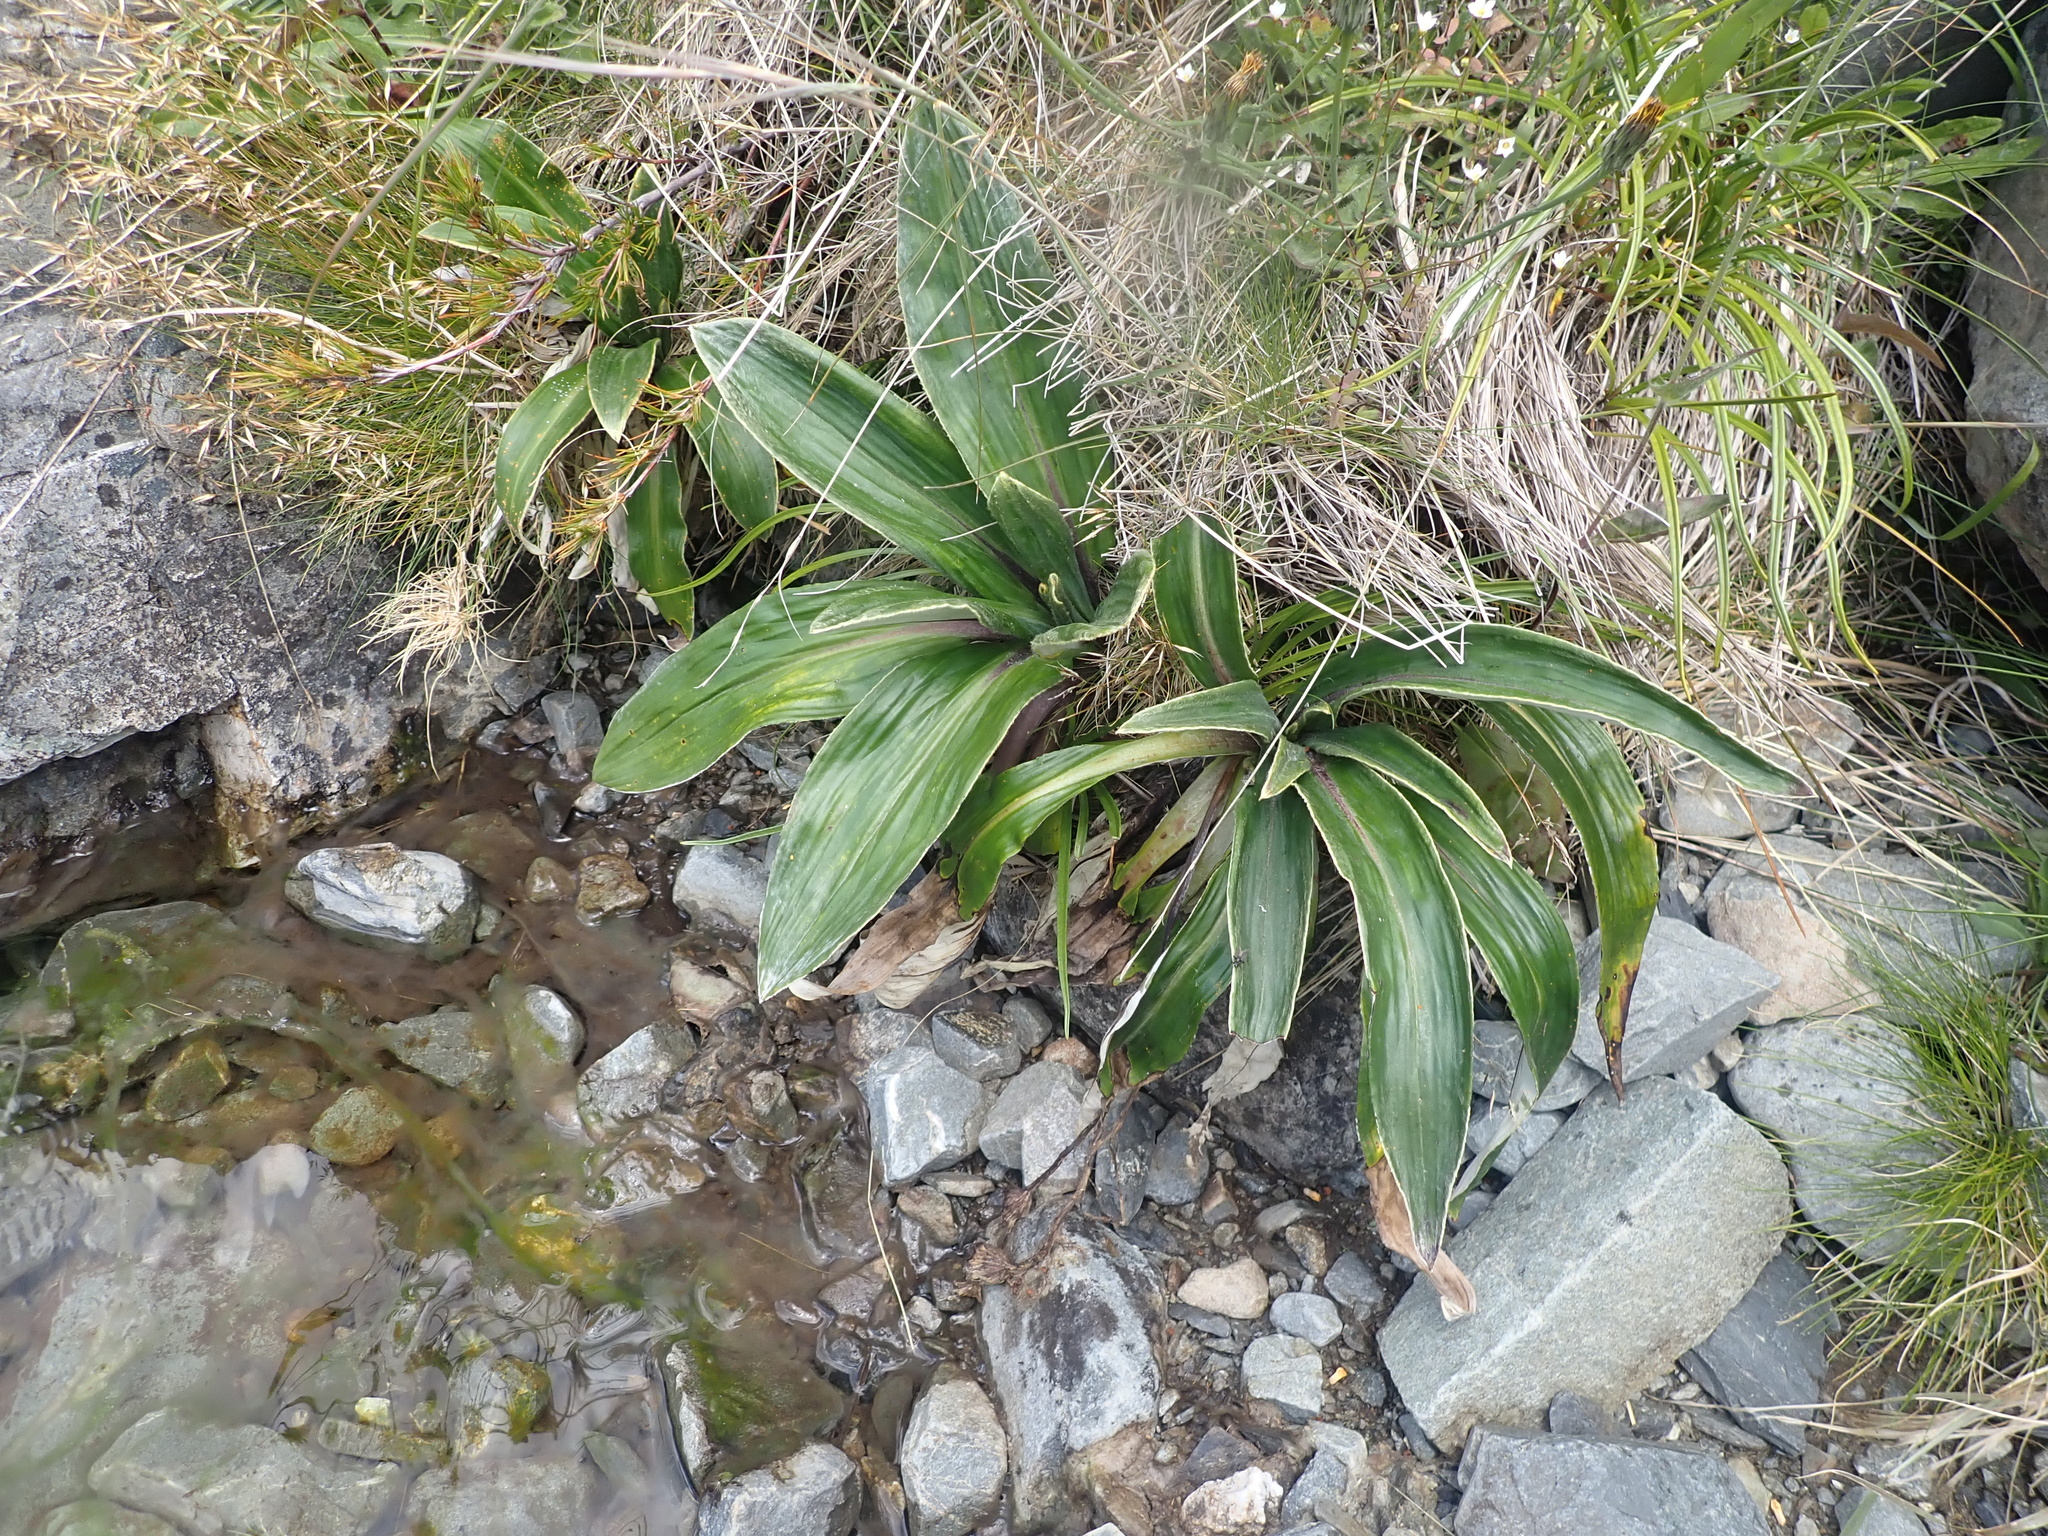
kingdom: Plantae
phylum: Tracheophyta
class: Magnoliopsida
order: Asterales
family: Asteraceae
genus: Celmisia
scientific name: Celmisia verbascifolia
